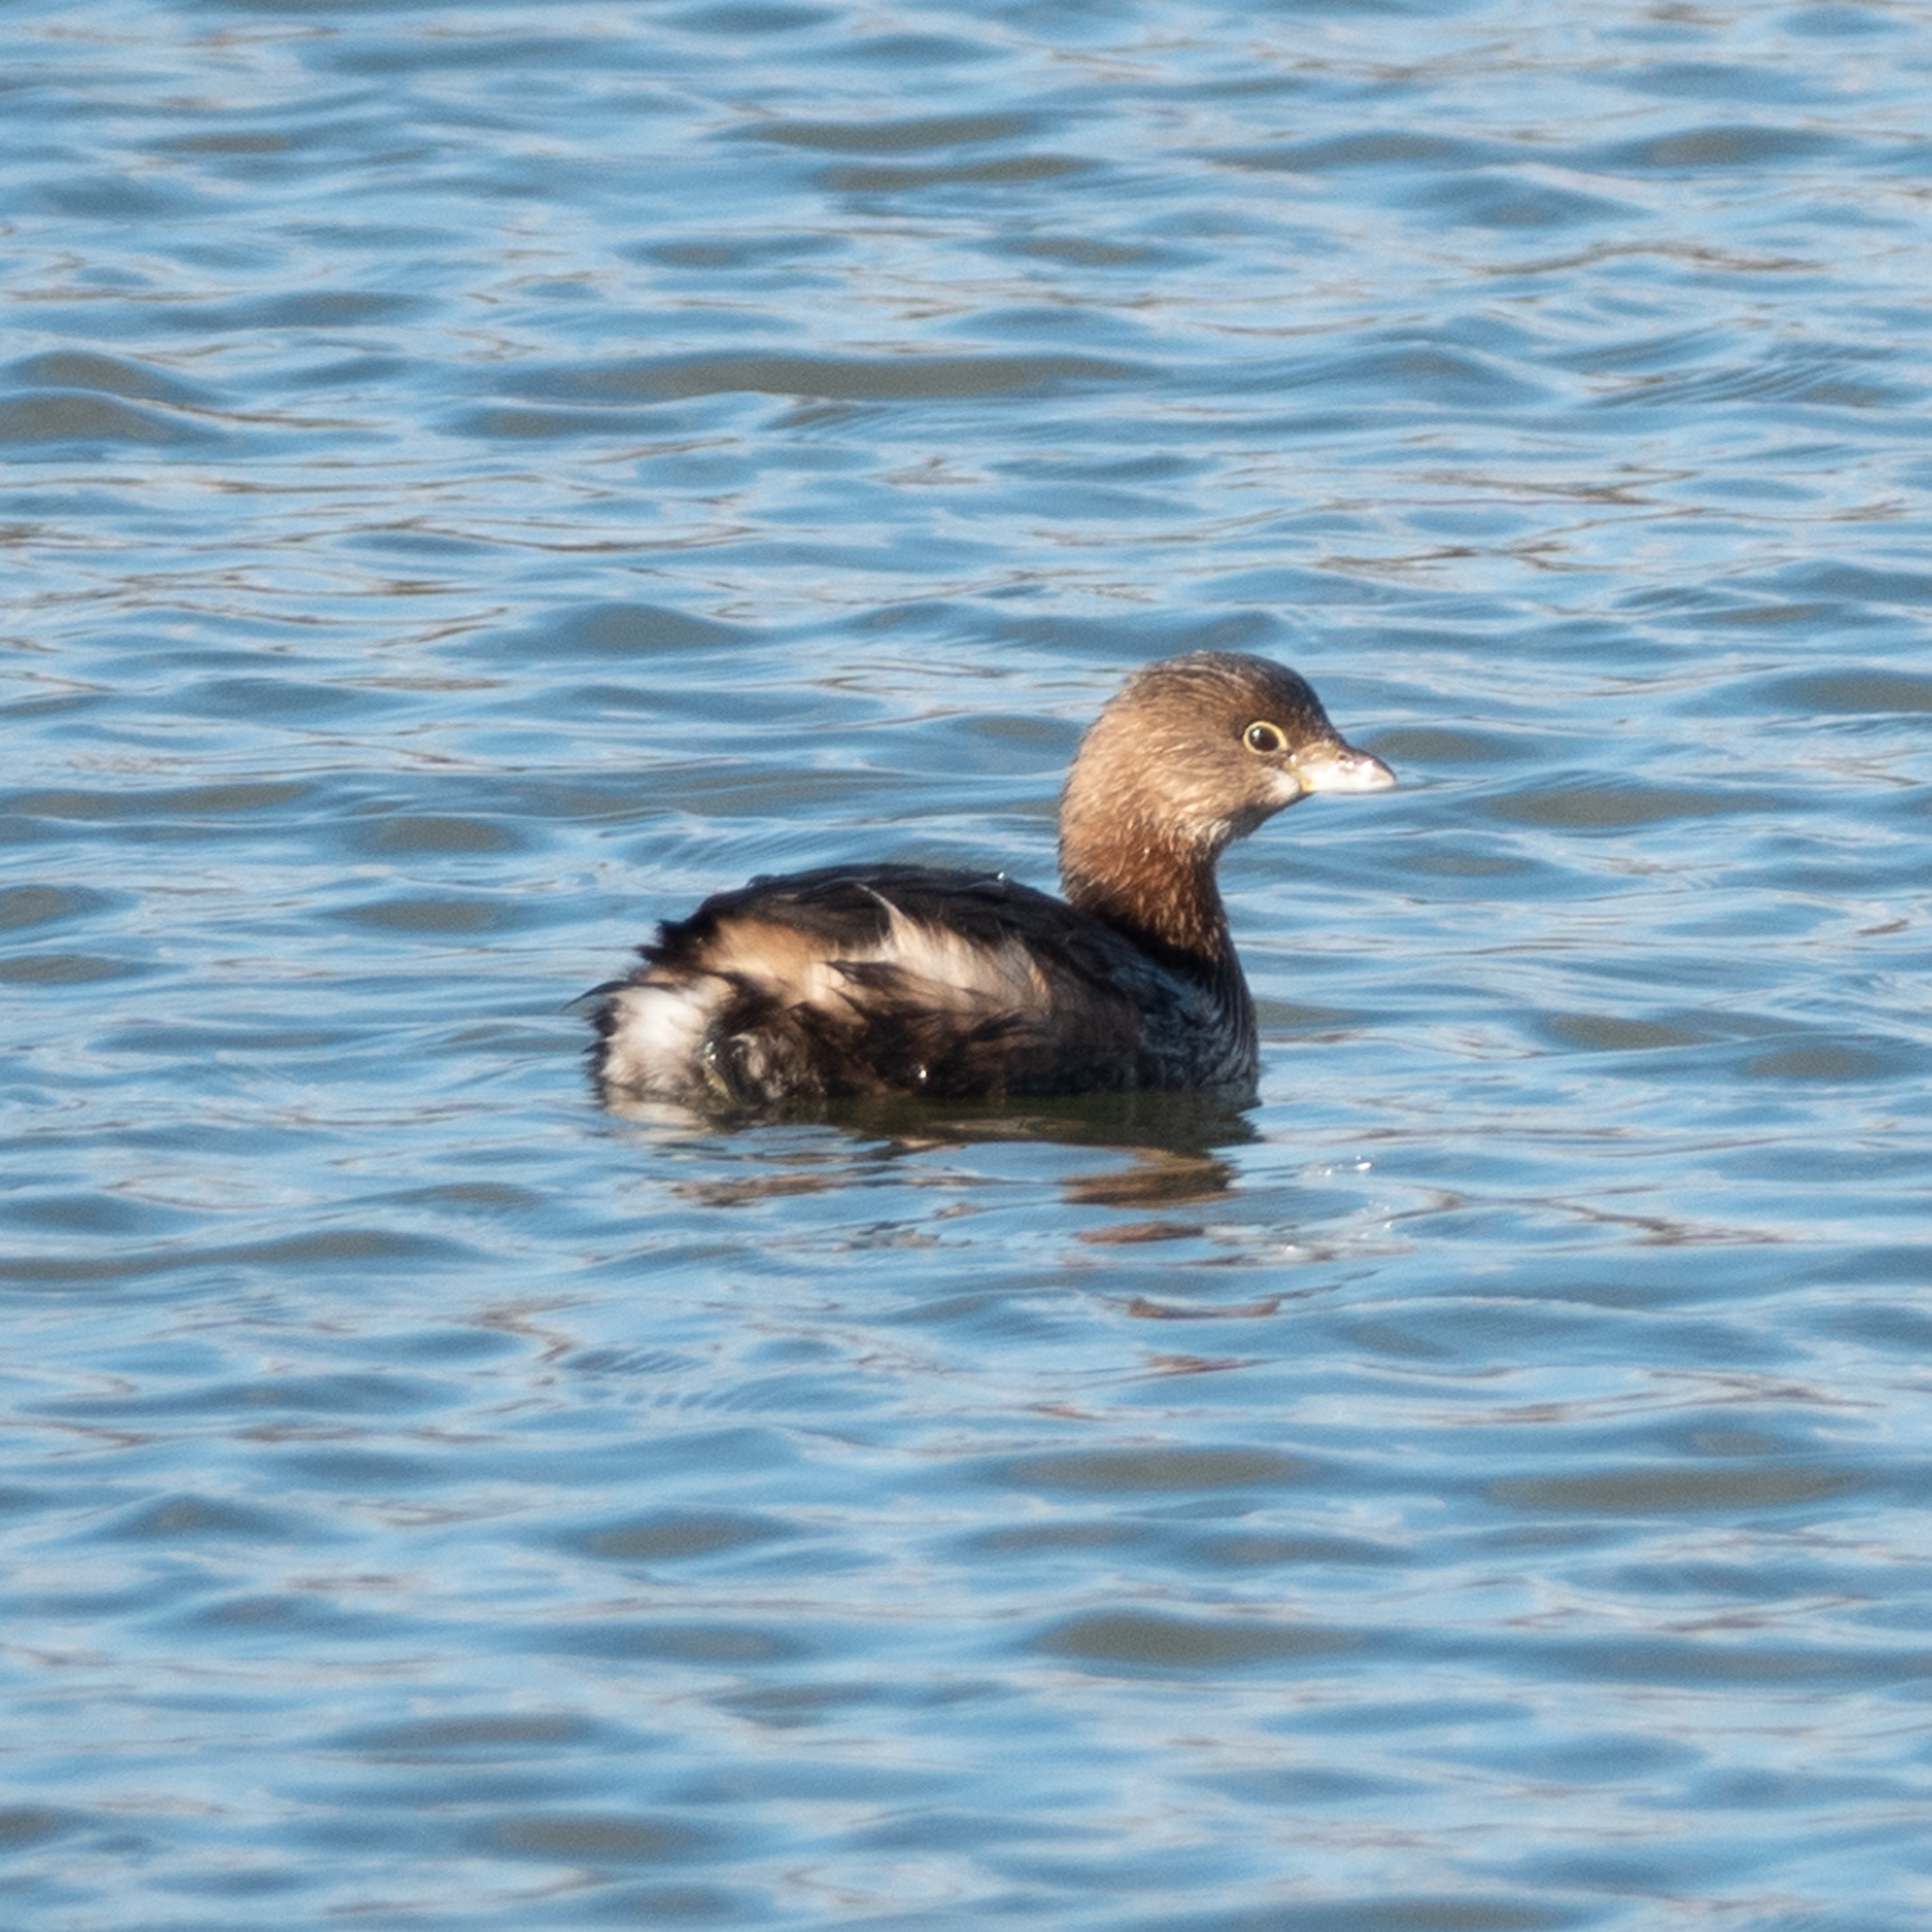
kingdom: Animalia
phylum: Chordata
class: Aves
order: Podicipediformes
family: Podicipedidae
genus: Podilymbus
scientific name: Podilymbus podiceps
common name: Pied-billed grebe
